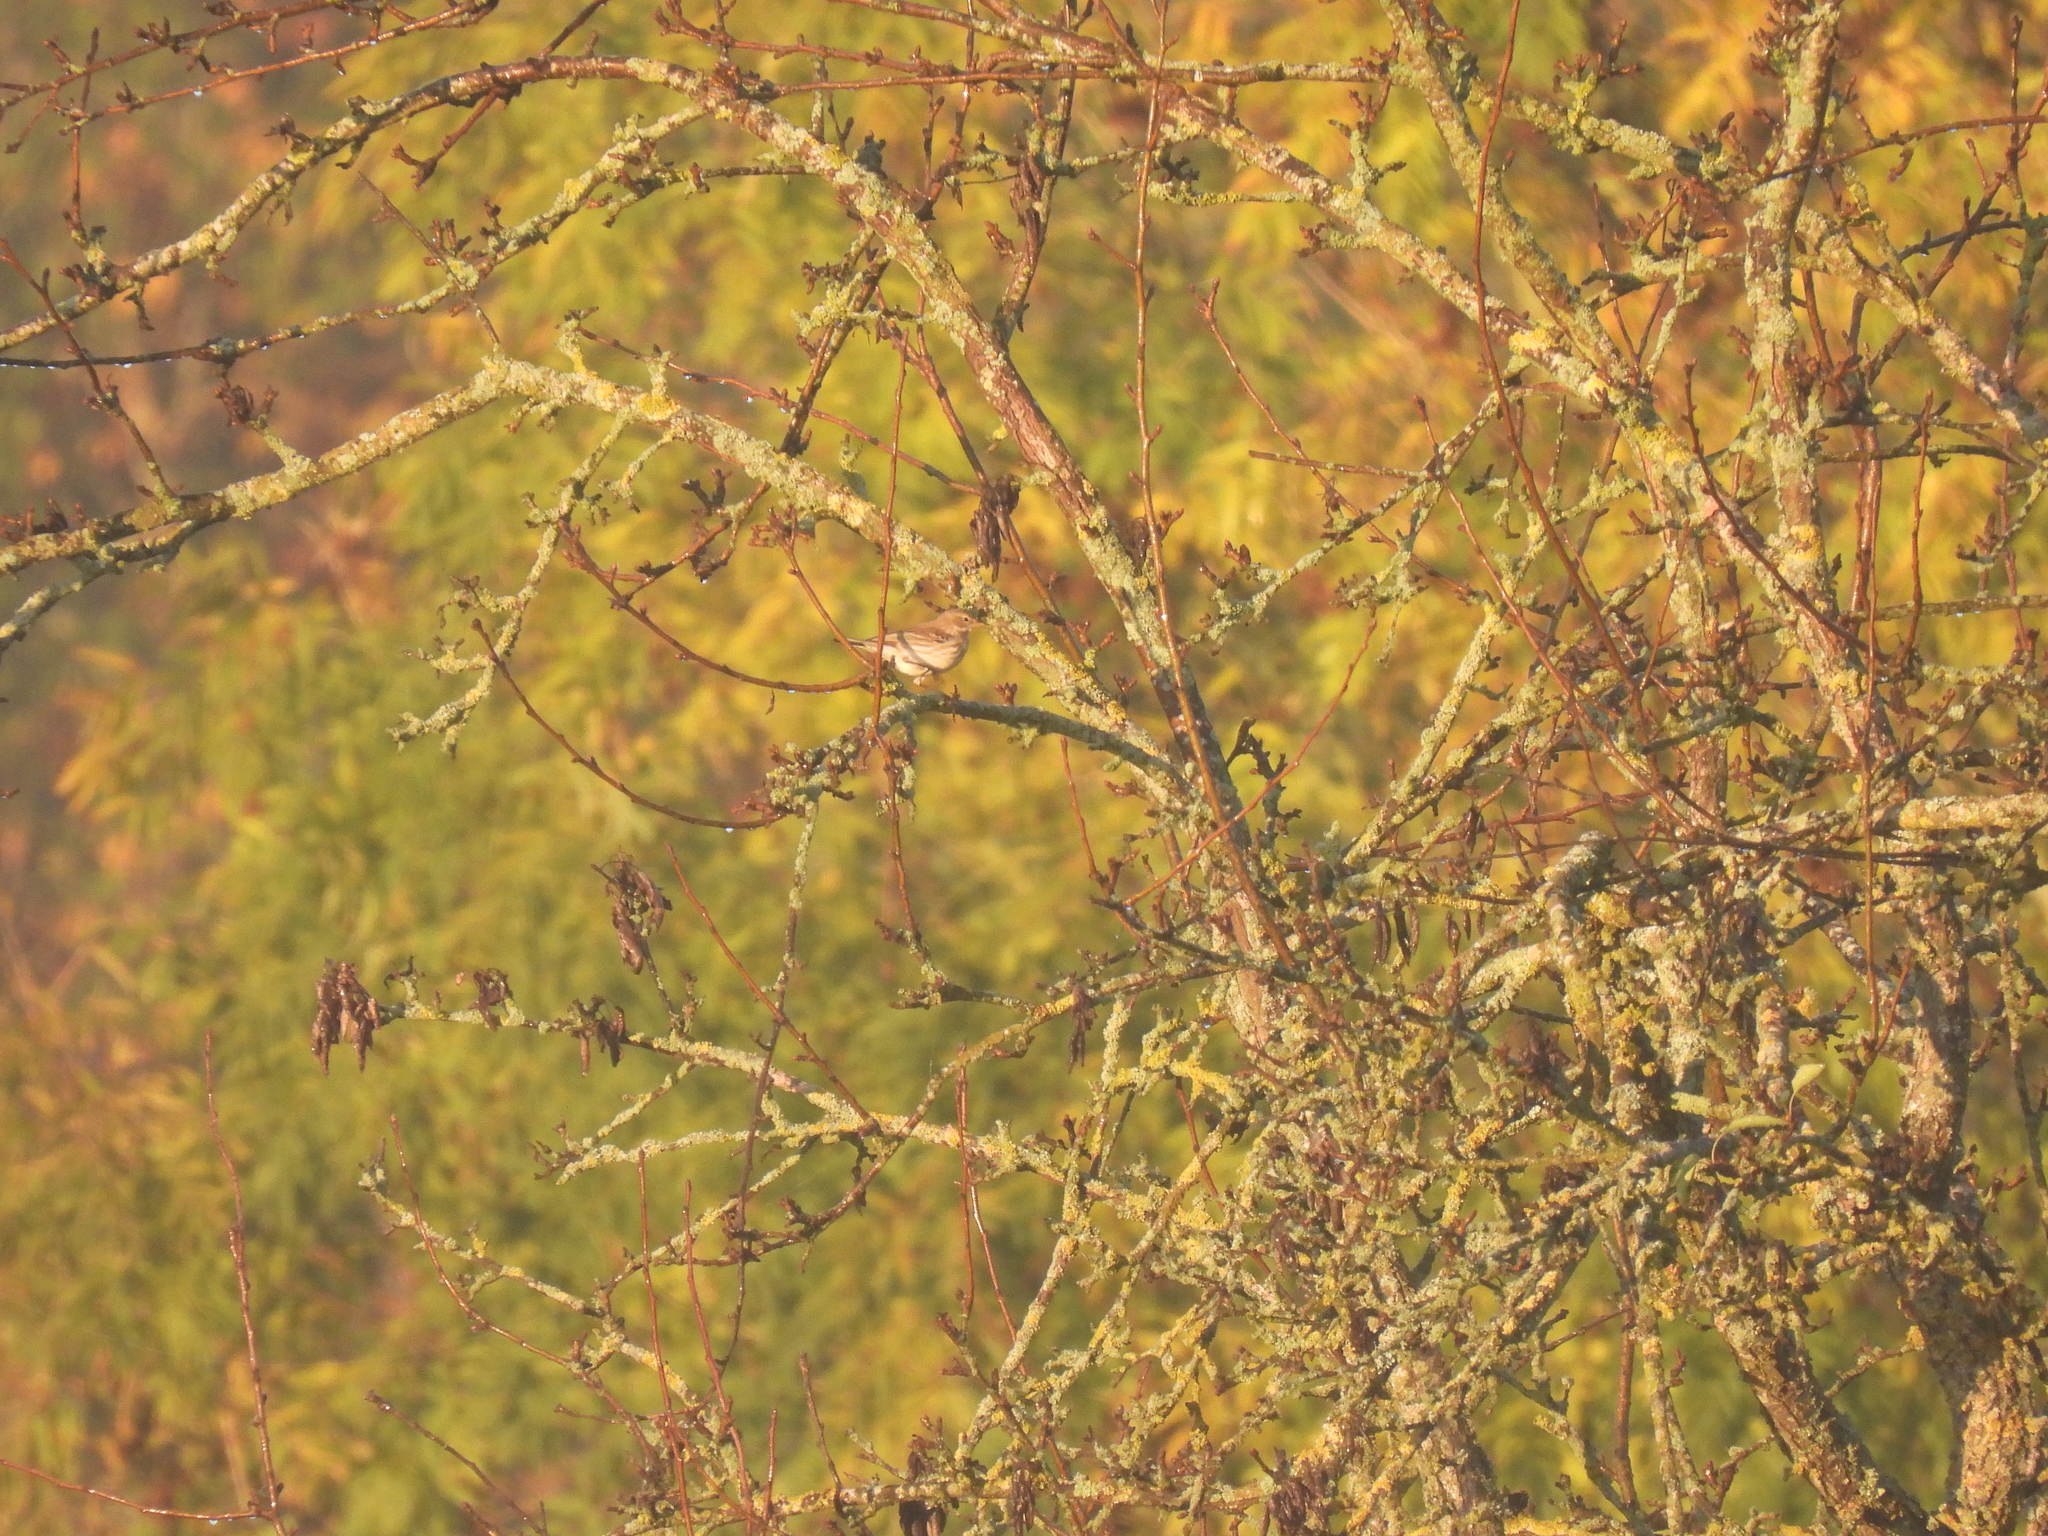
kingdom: Animalia
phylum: Chordata
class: Aves
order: Passeriformes
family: Motacillidae
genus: Anthus
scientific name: Anthus spinoletta
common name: Water pipit
